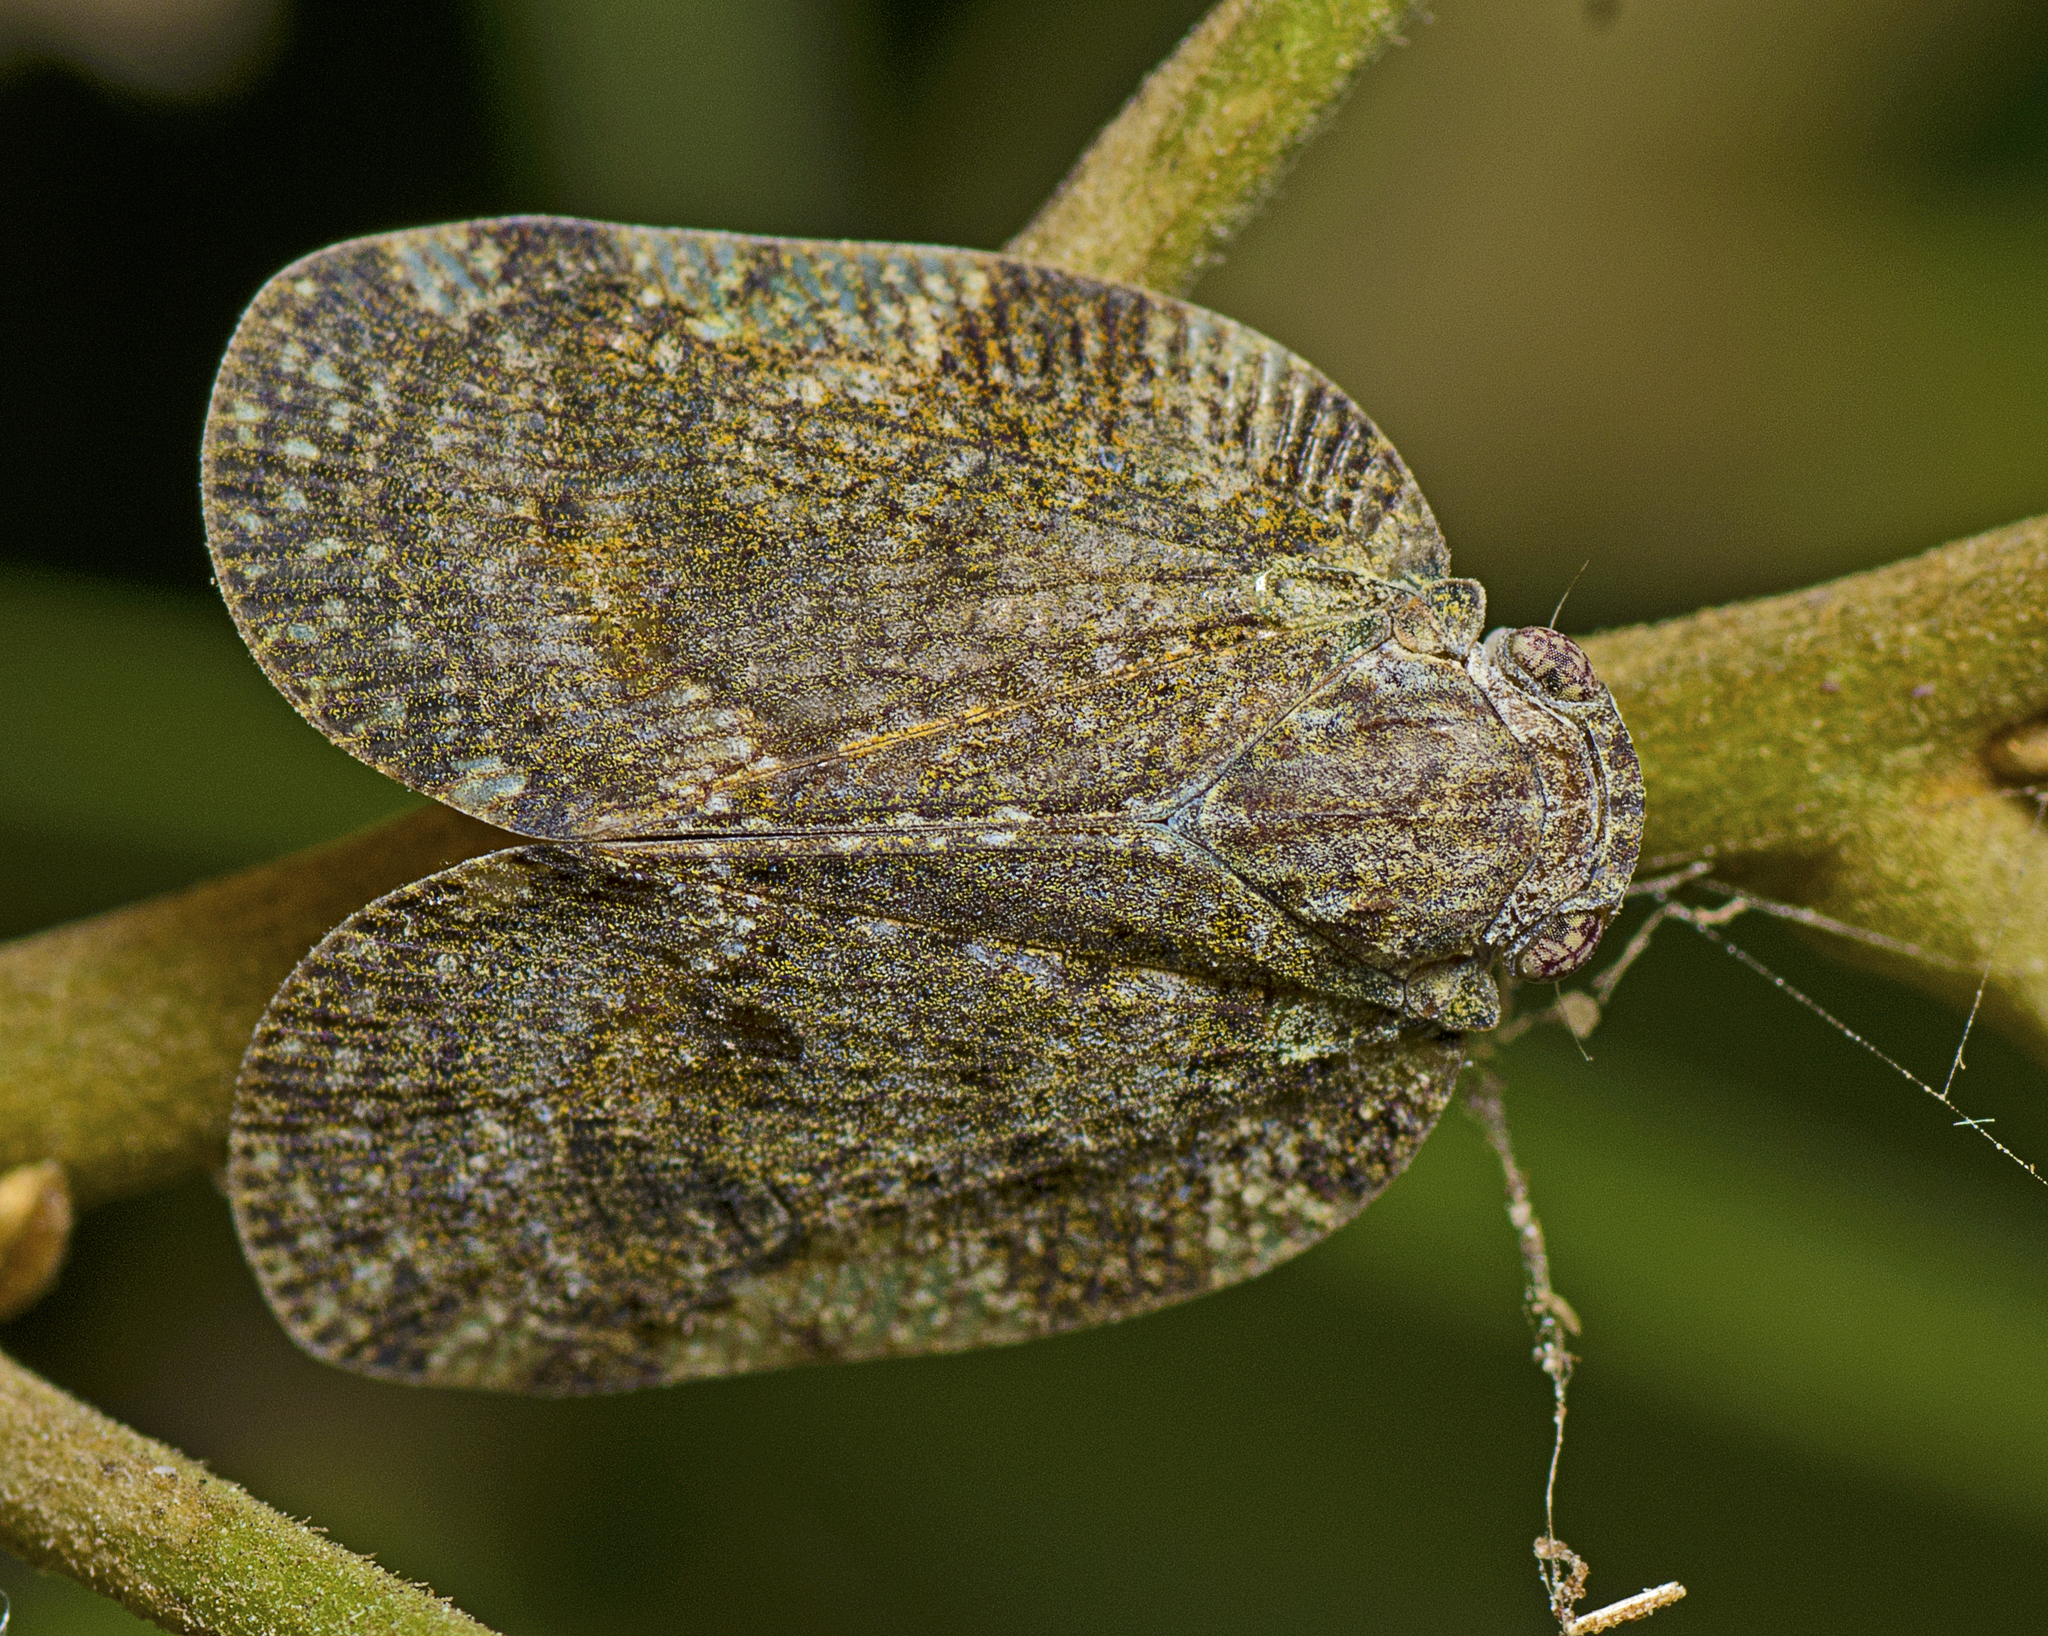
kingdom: Animalia
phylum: Arthropoda
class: Insecta
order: Hemiptera
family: Ricaniidae
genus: Aprivesa
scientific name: Aprivesa exuta
